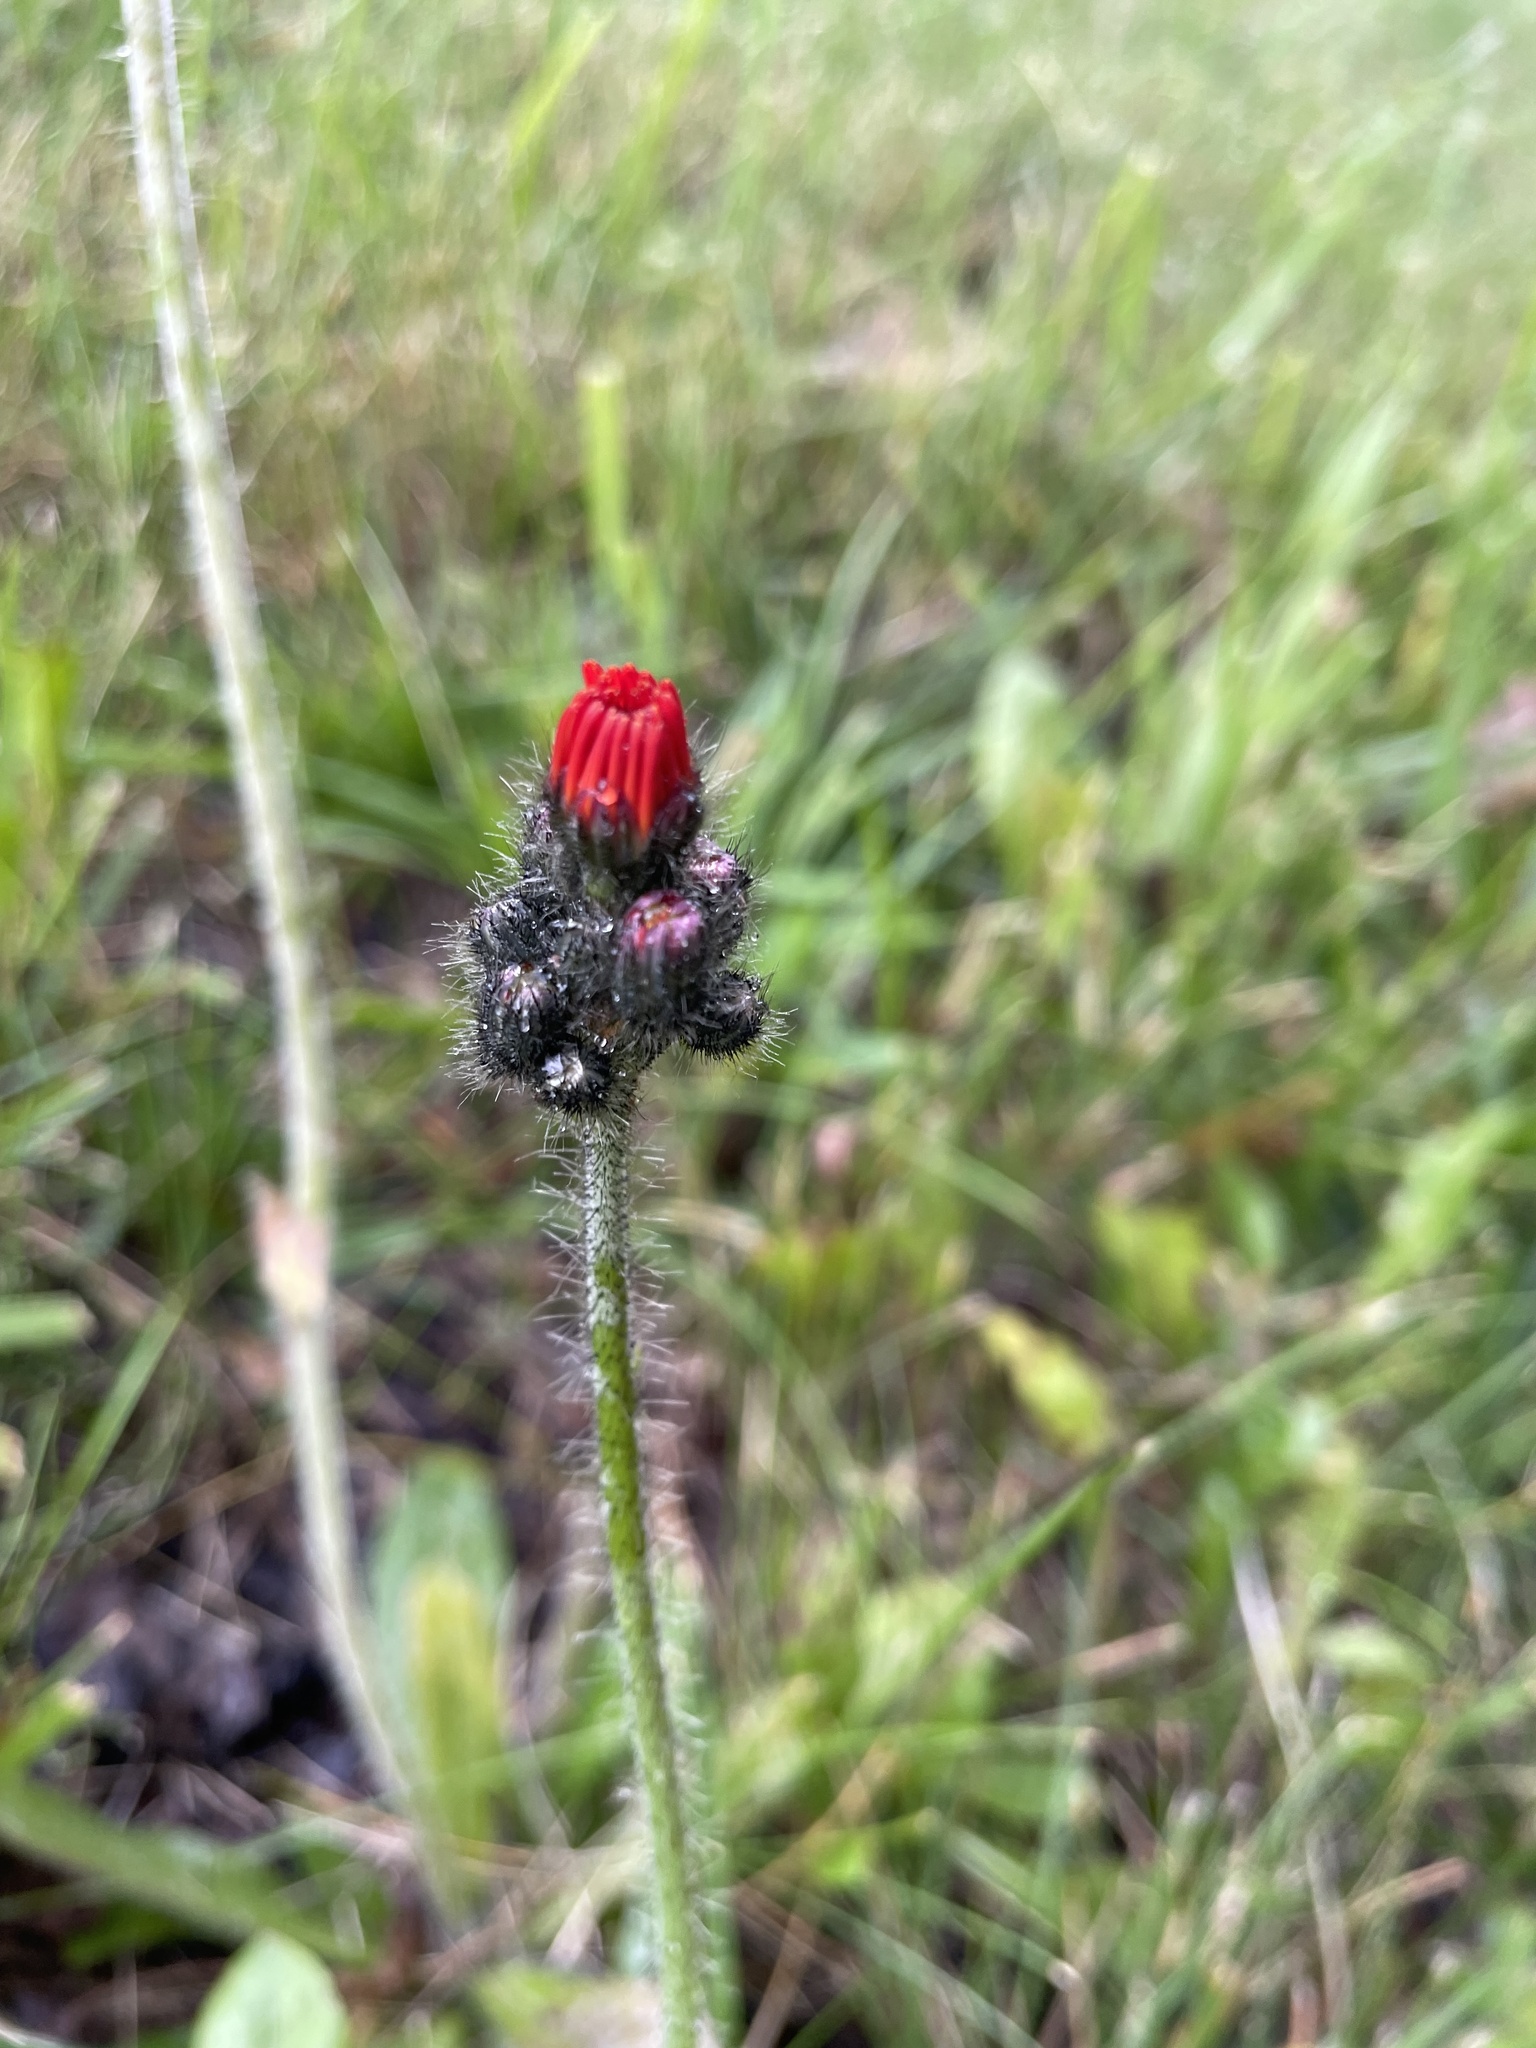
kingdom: Plantae
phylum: Tracheophyta
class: Magnoliopsida
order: Asterales
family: Asteraceae
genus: Pilosella
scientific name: Pilosella aurantiaca
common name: Fox-and-cubs
